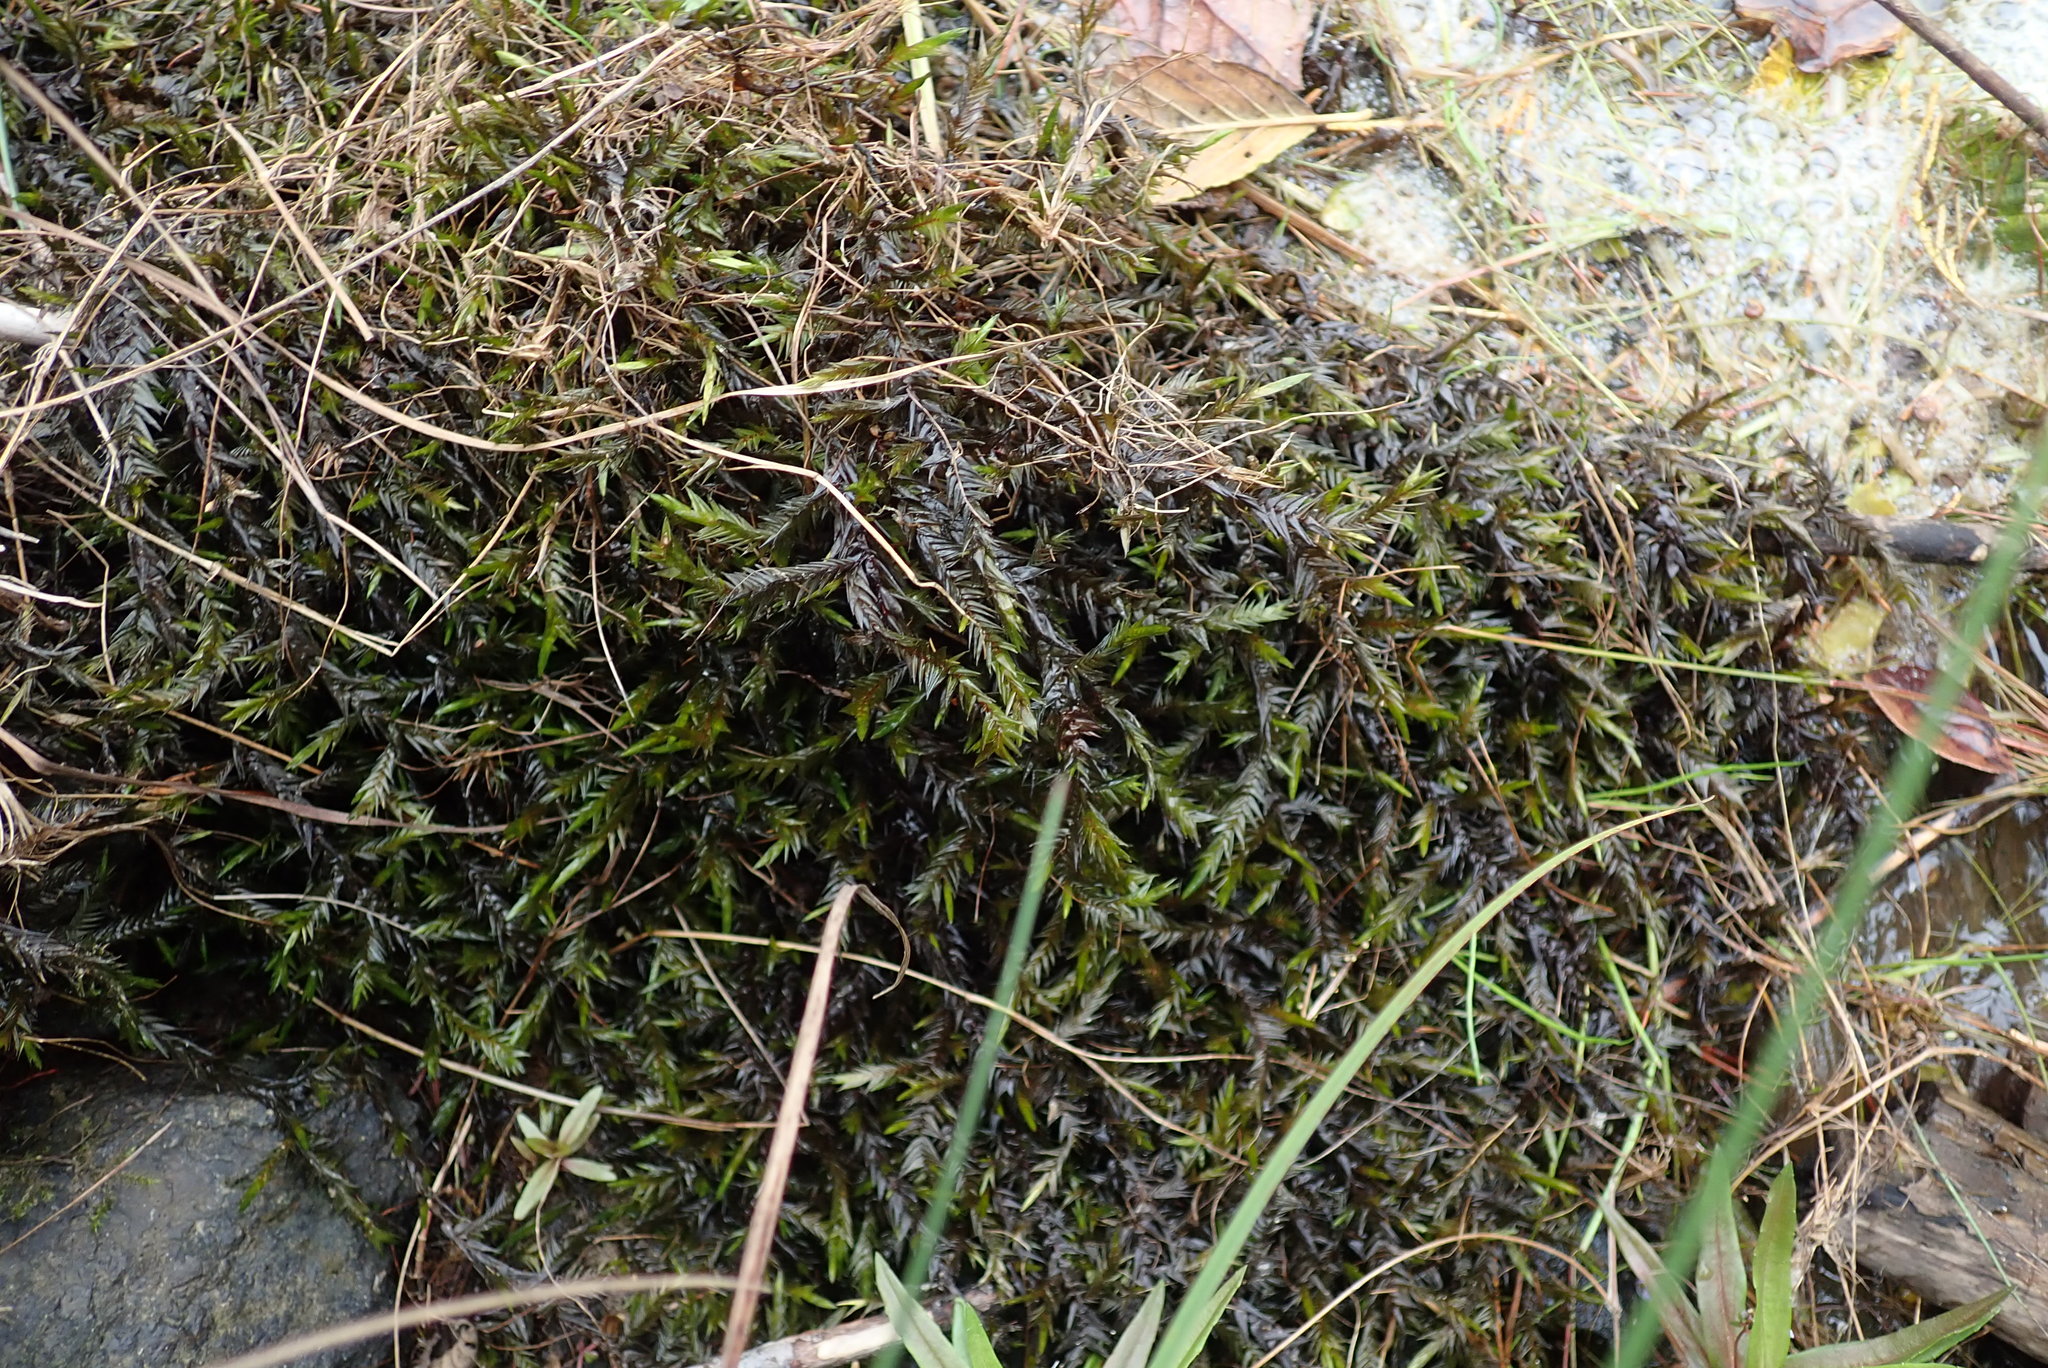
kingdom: Plantae
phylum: Bryophyta
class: Bryopsida
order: Hypnales
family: Fontinalaceae
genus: Fontinalis
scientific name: Fontinalis antipyretica
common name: Greater water-moss
